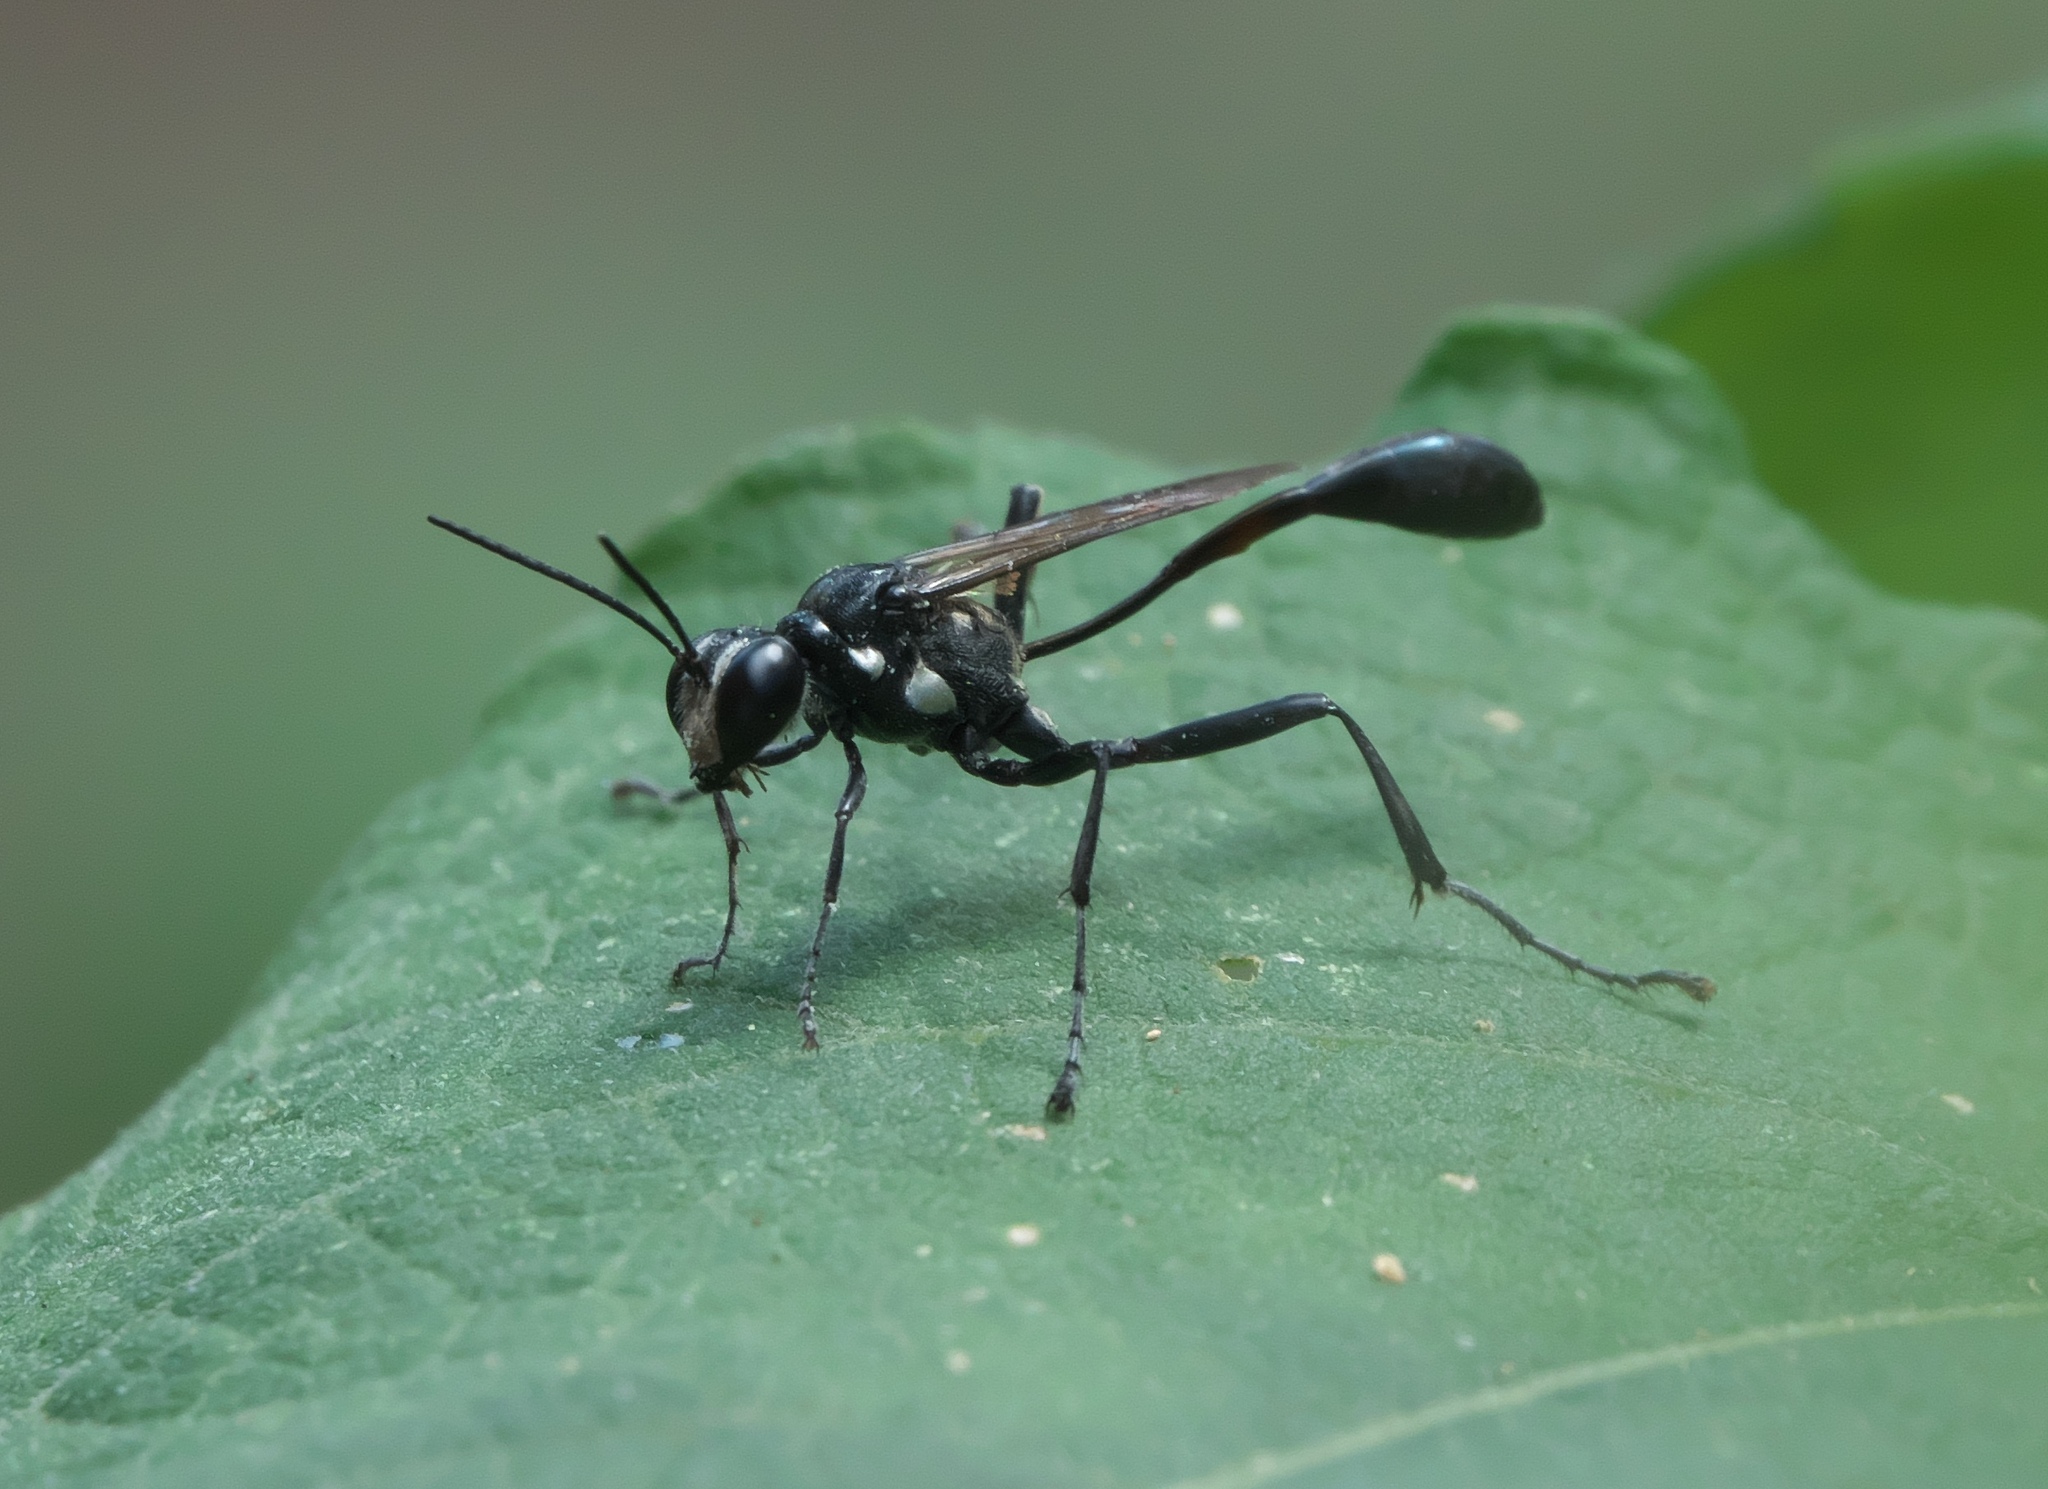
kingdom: Animalia
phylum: Arthropoda
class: Insecta
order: Hymenoptera
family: Sphecidae
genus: Eremnophila
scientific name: Eremnophila aureonotata
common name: Gold-marked thread-waisted wasp
